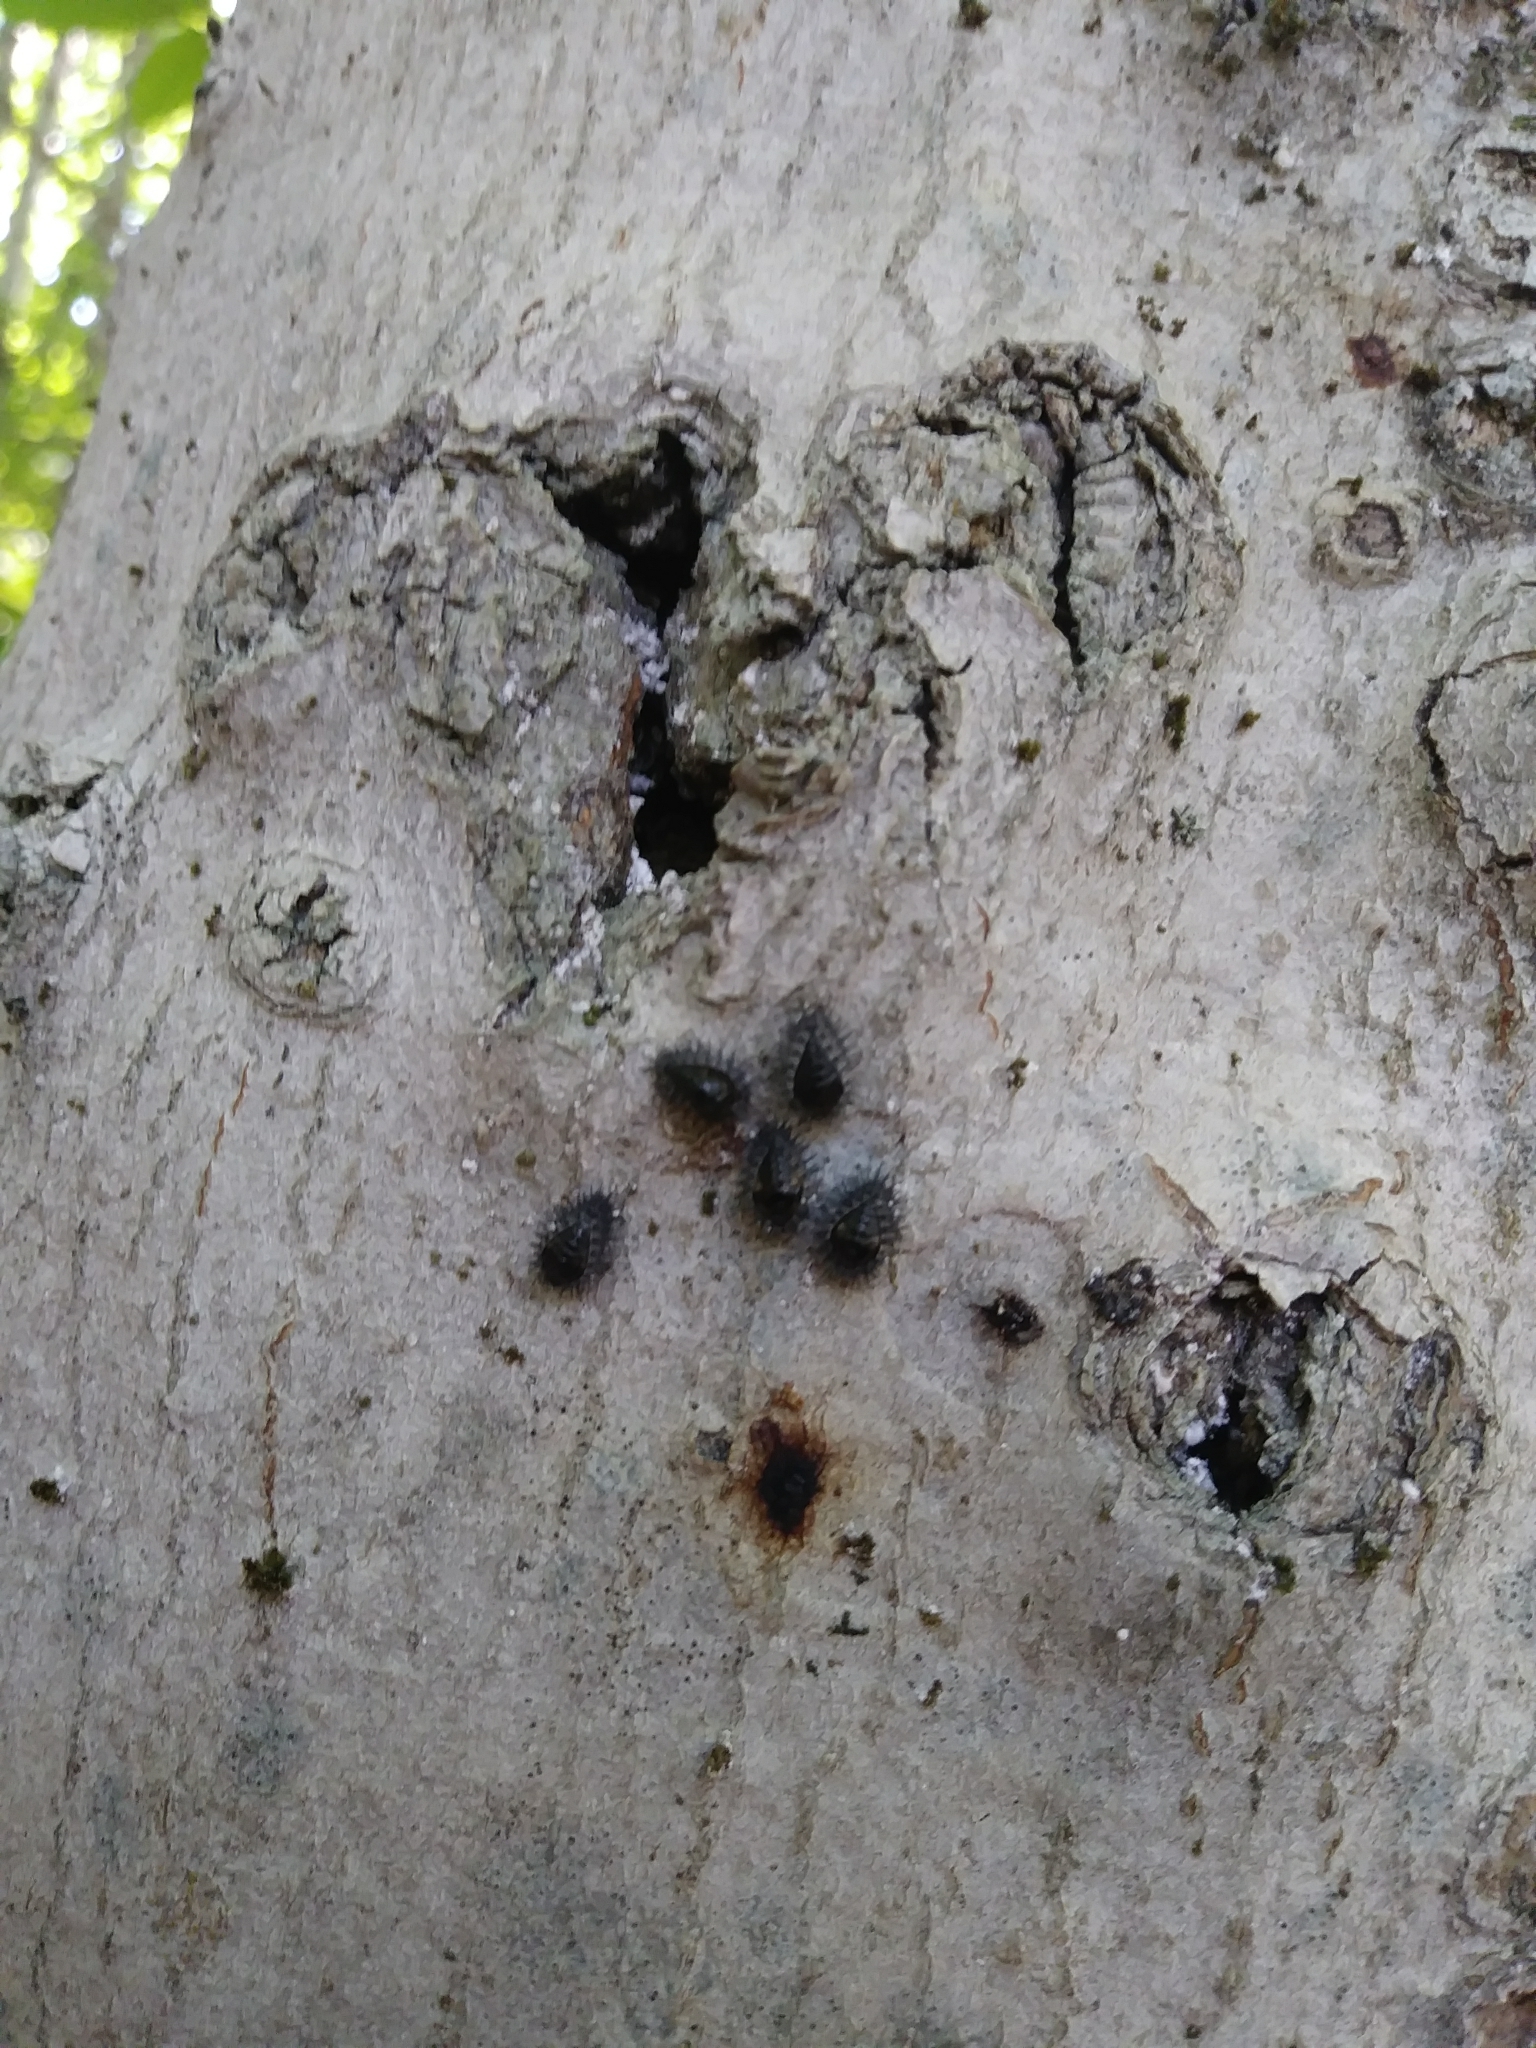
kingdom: Animalia
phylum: Arthropoda
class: Insecta
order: Hemiptera
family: Eriococcidae
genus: Cryptococcus
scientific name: Cryptococcus fagisuga
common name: Beech scale
